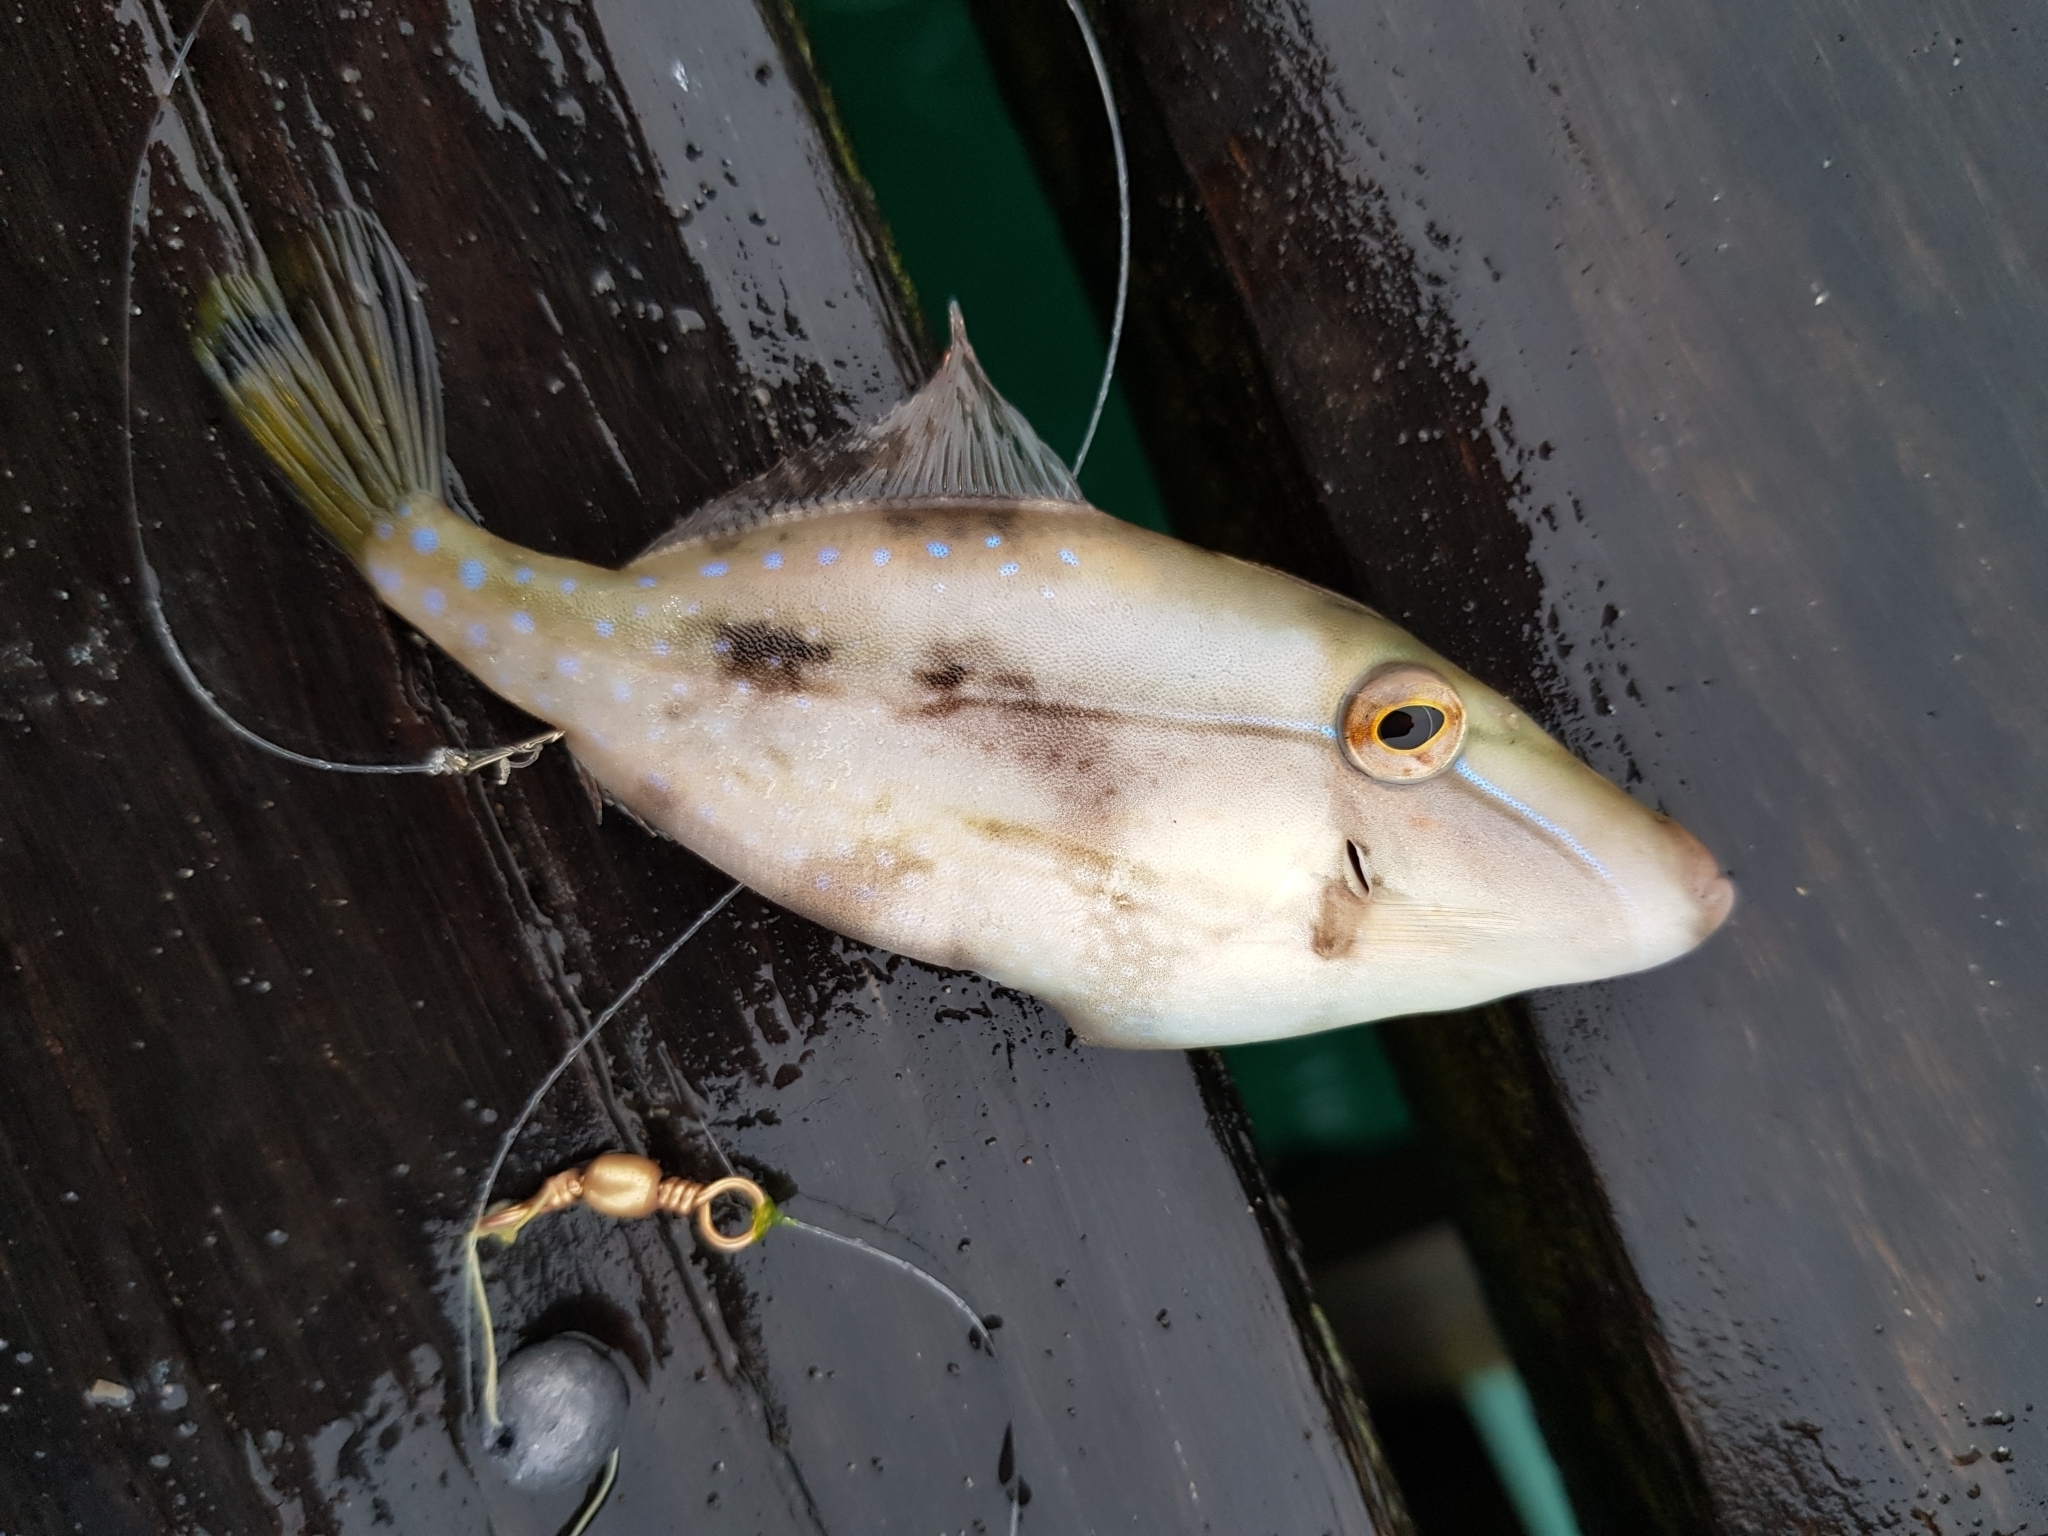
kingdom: Animalia
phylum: Chordata
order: Tetraodontiformes
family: Monacanthidae
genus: Acanthaluteres
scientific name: Acanthaluteres spilomelanurus
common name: Bridled leatherjacket
